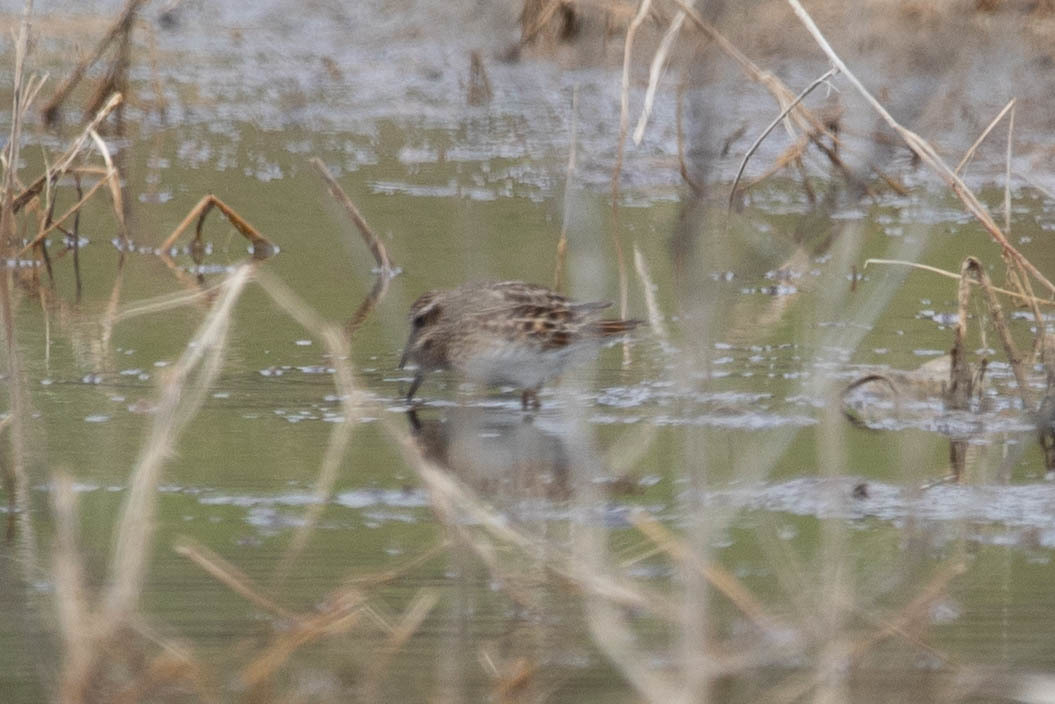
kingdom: Animalia
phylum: Chordata
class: Aves
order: Charadriiformes
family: Scolopacidae
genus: Calidris
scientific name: Calidris minutilla
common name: Least sandpiper
